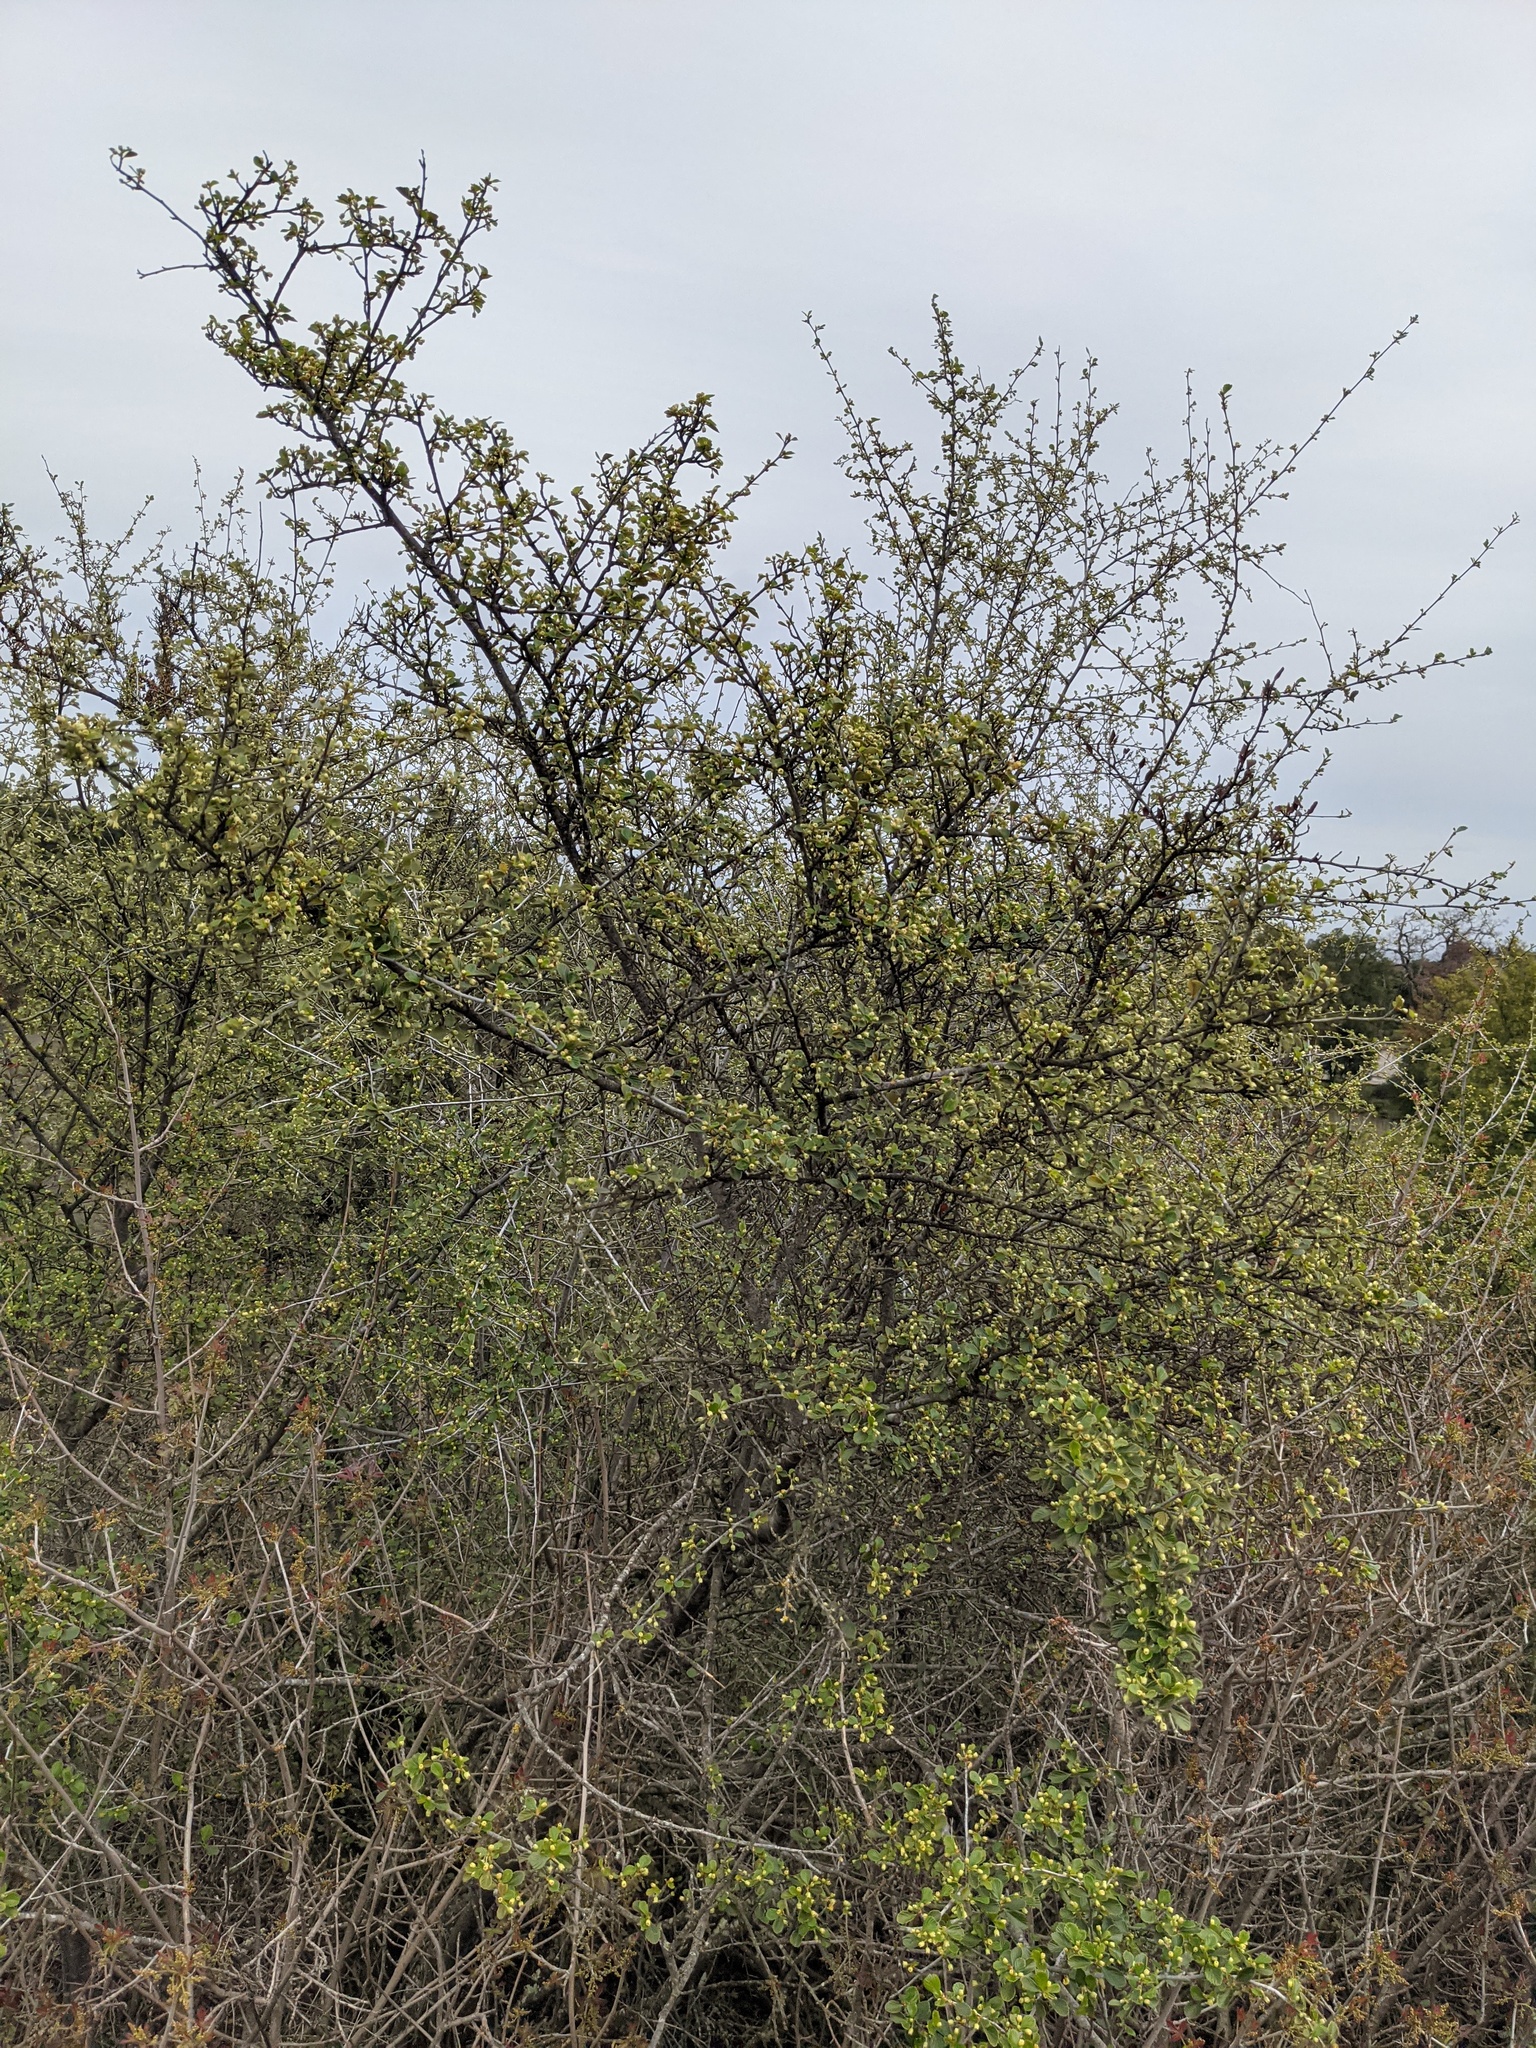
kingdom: Plantae
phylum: Tracheophyta
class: Magnoliopsida
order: Rosales
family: Rosaceae
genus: Cercocarpus
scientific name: Cercocarpus betuloides
